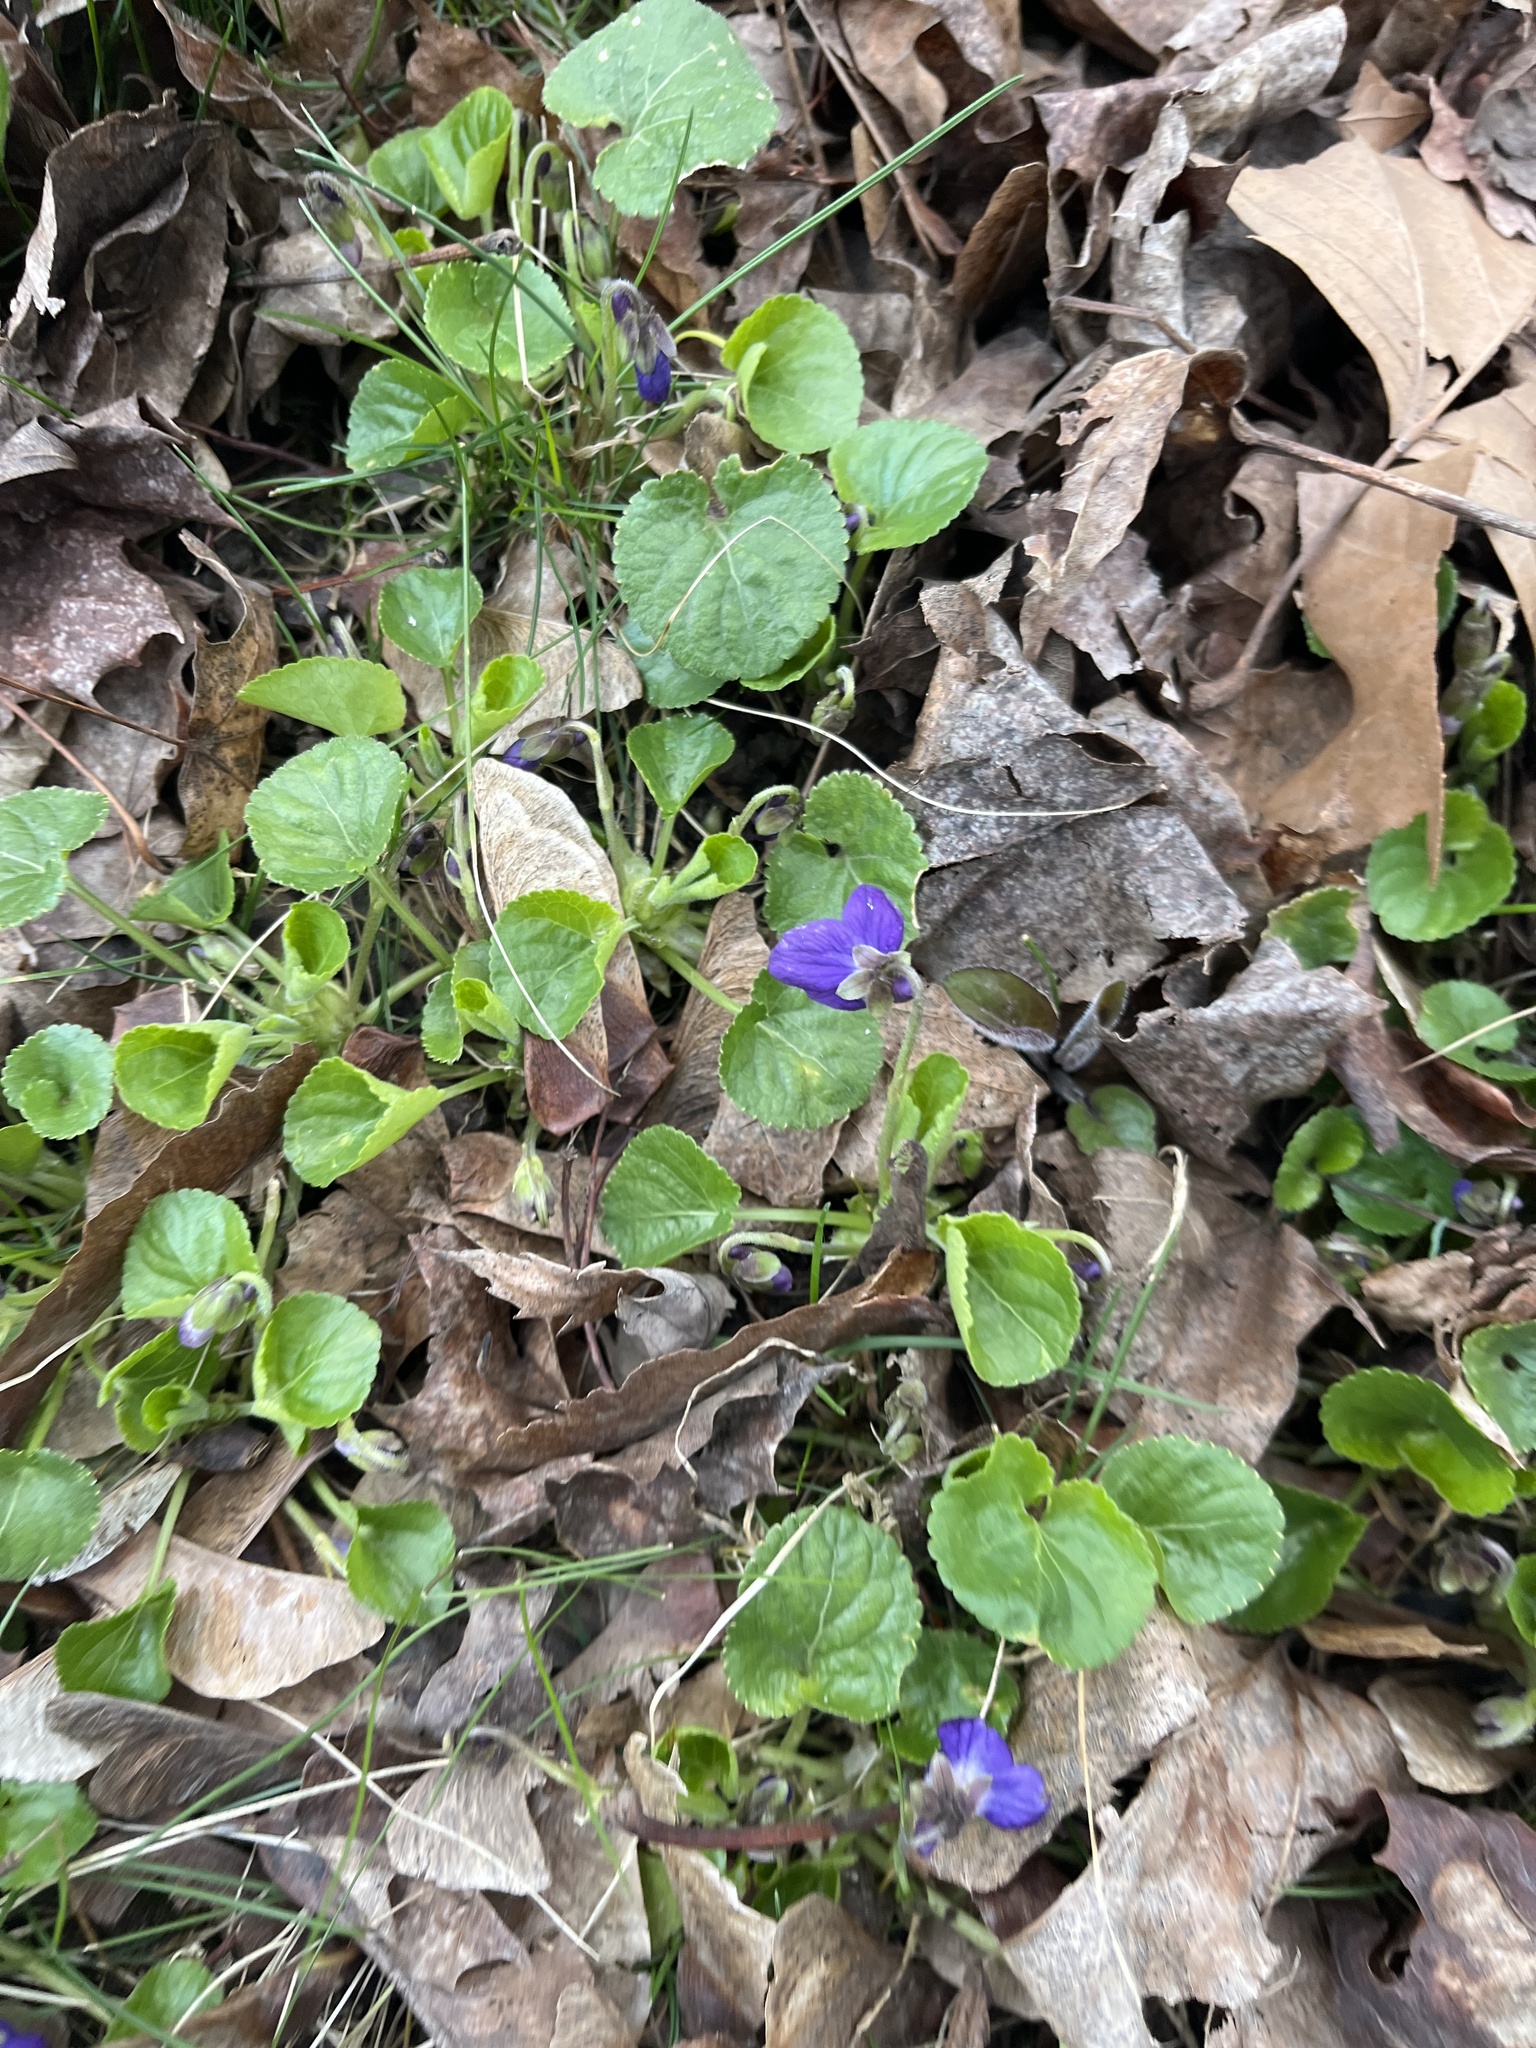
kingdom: Plantae
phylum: Tracheophyta
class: Magnoliopsida
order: Malpighiales
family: Violaceae
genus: Viola
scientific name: Viola odorata
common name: Sweet violet
